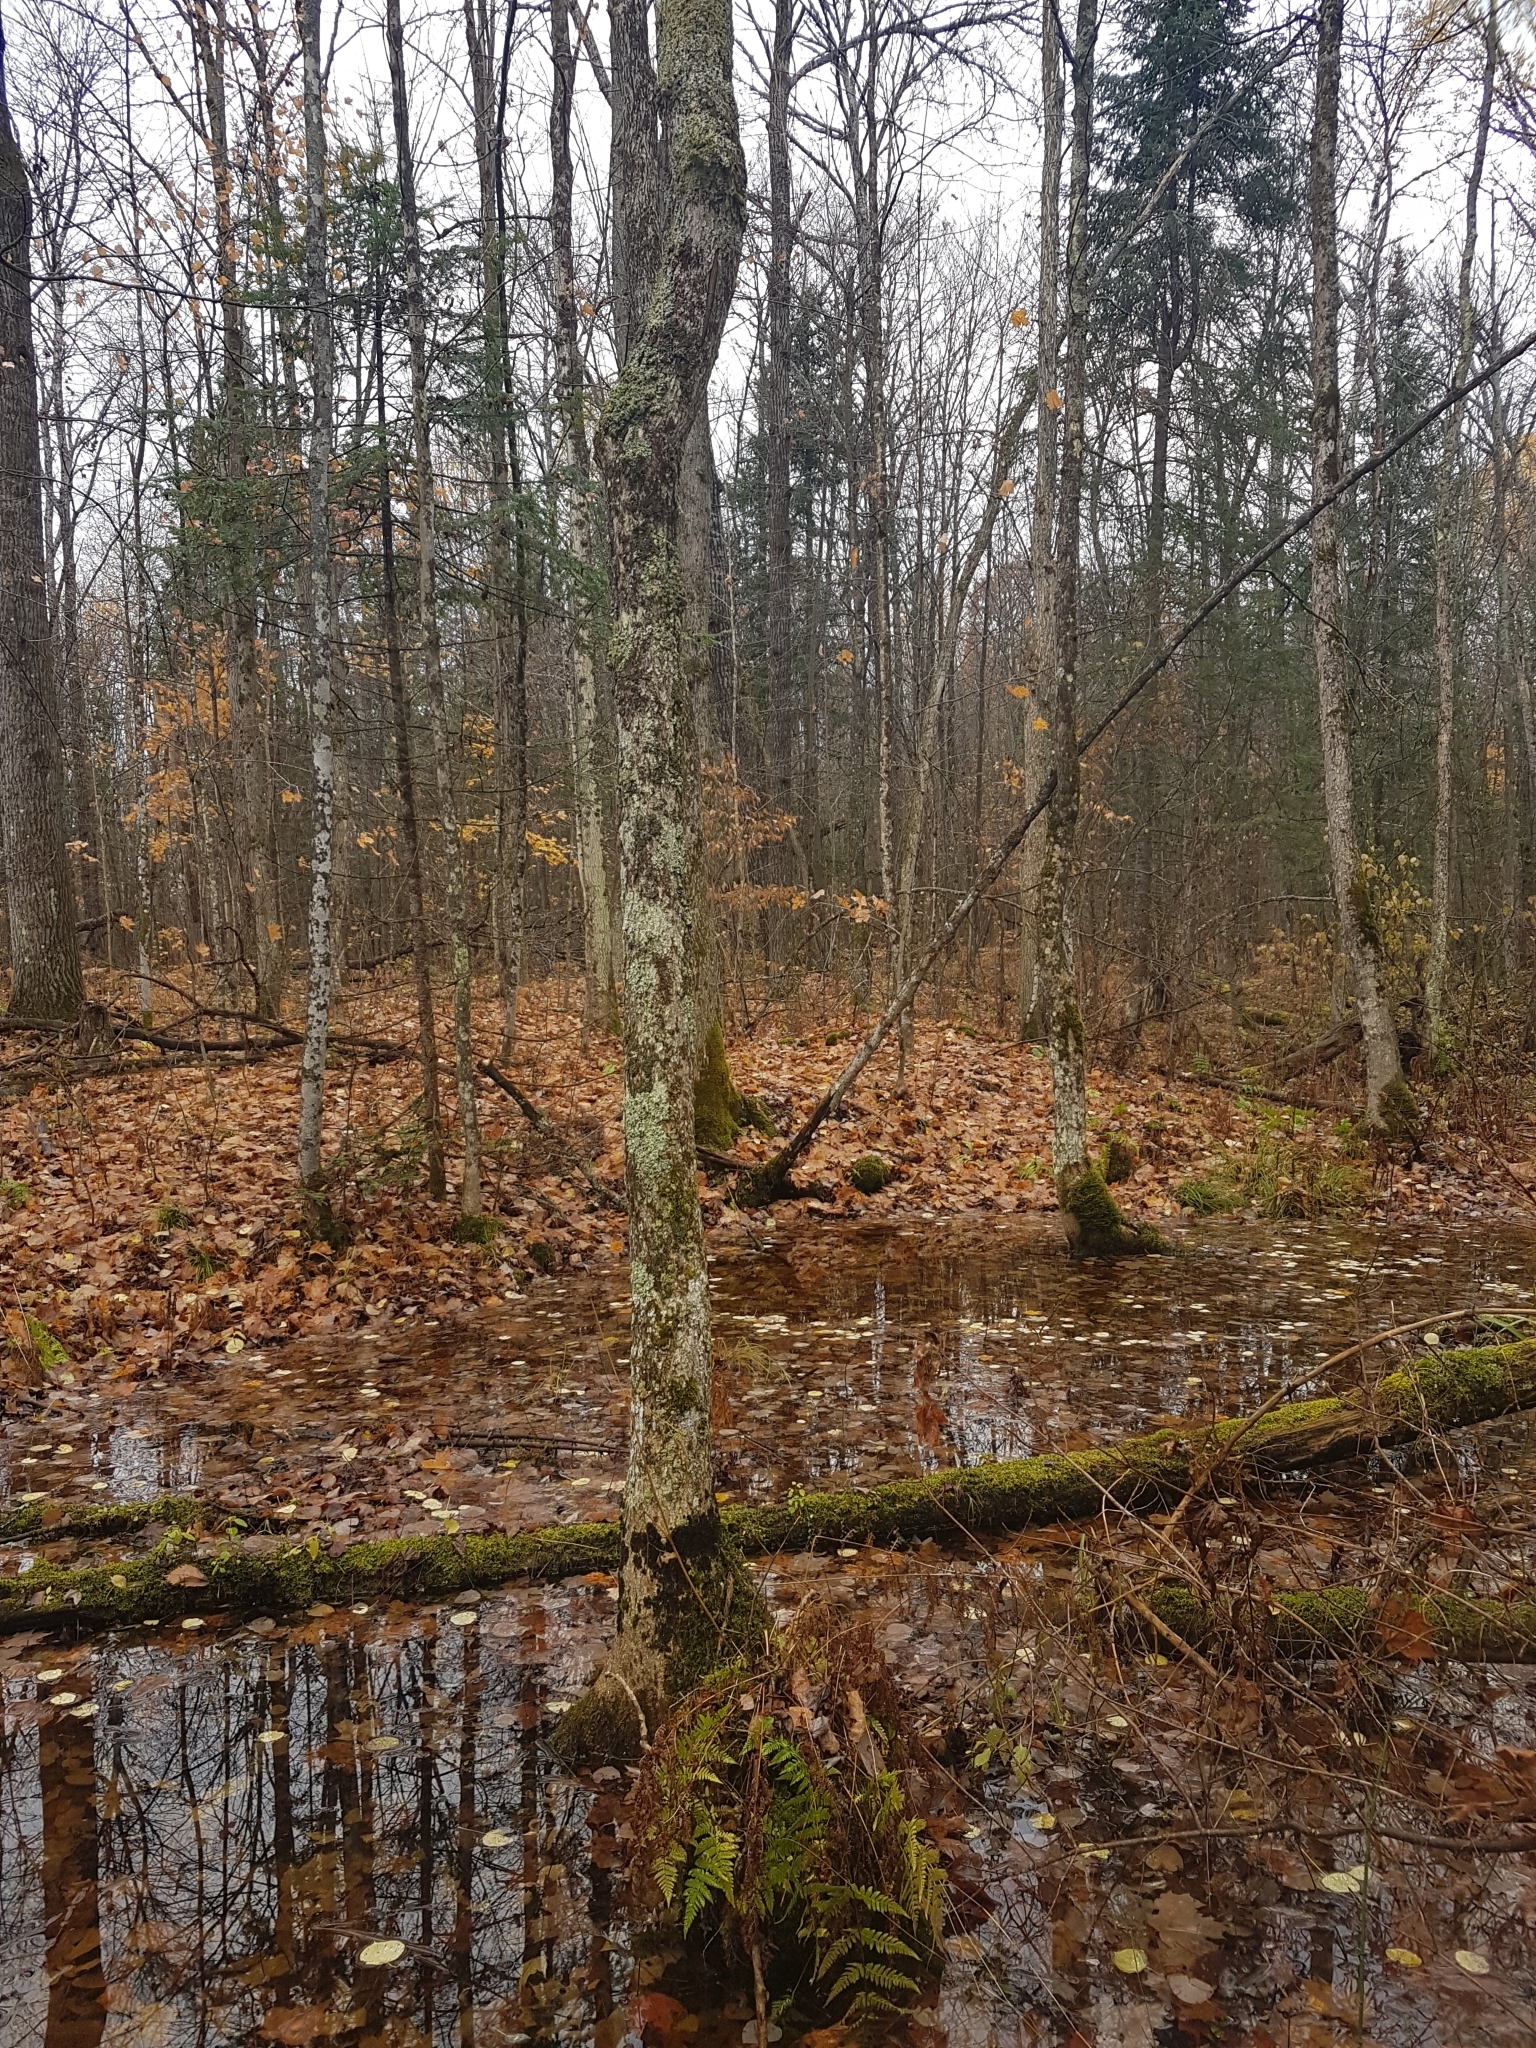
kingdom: Plantae
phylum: Tracheophyta
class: Magnoliopsida
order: Lamiales
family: Oleaceae
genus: Fraxinus
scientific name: Fraxinus nigra
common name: Black ash
